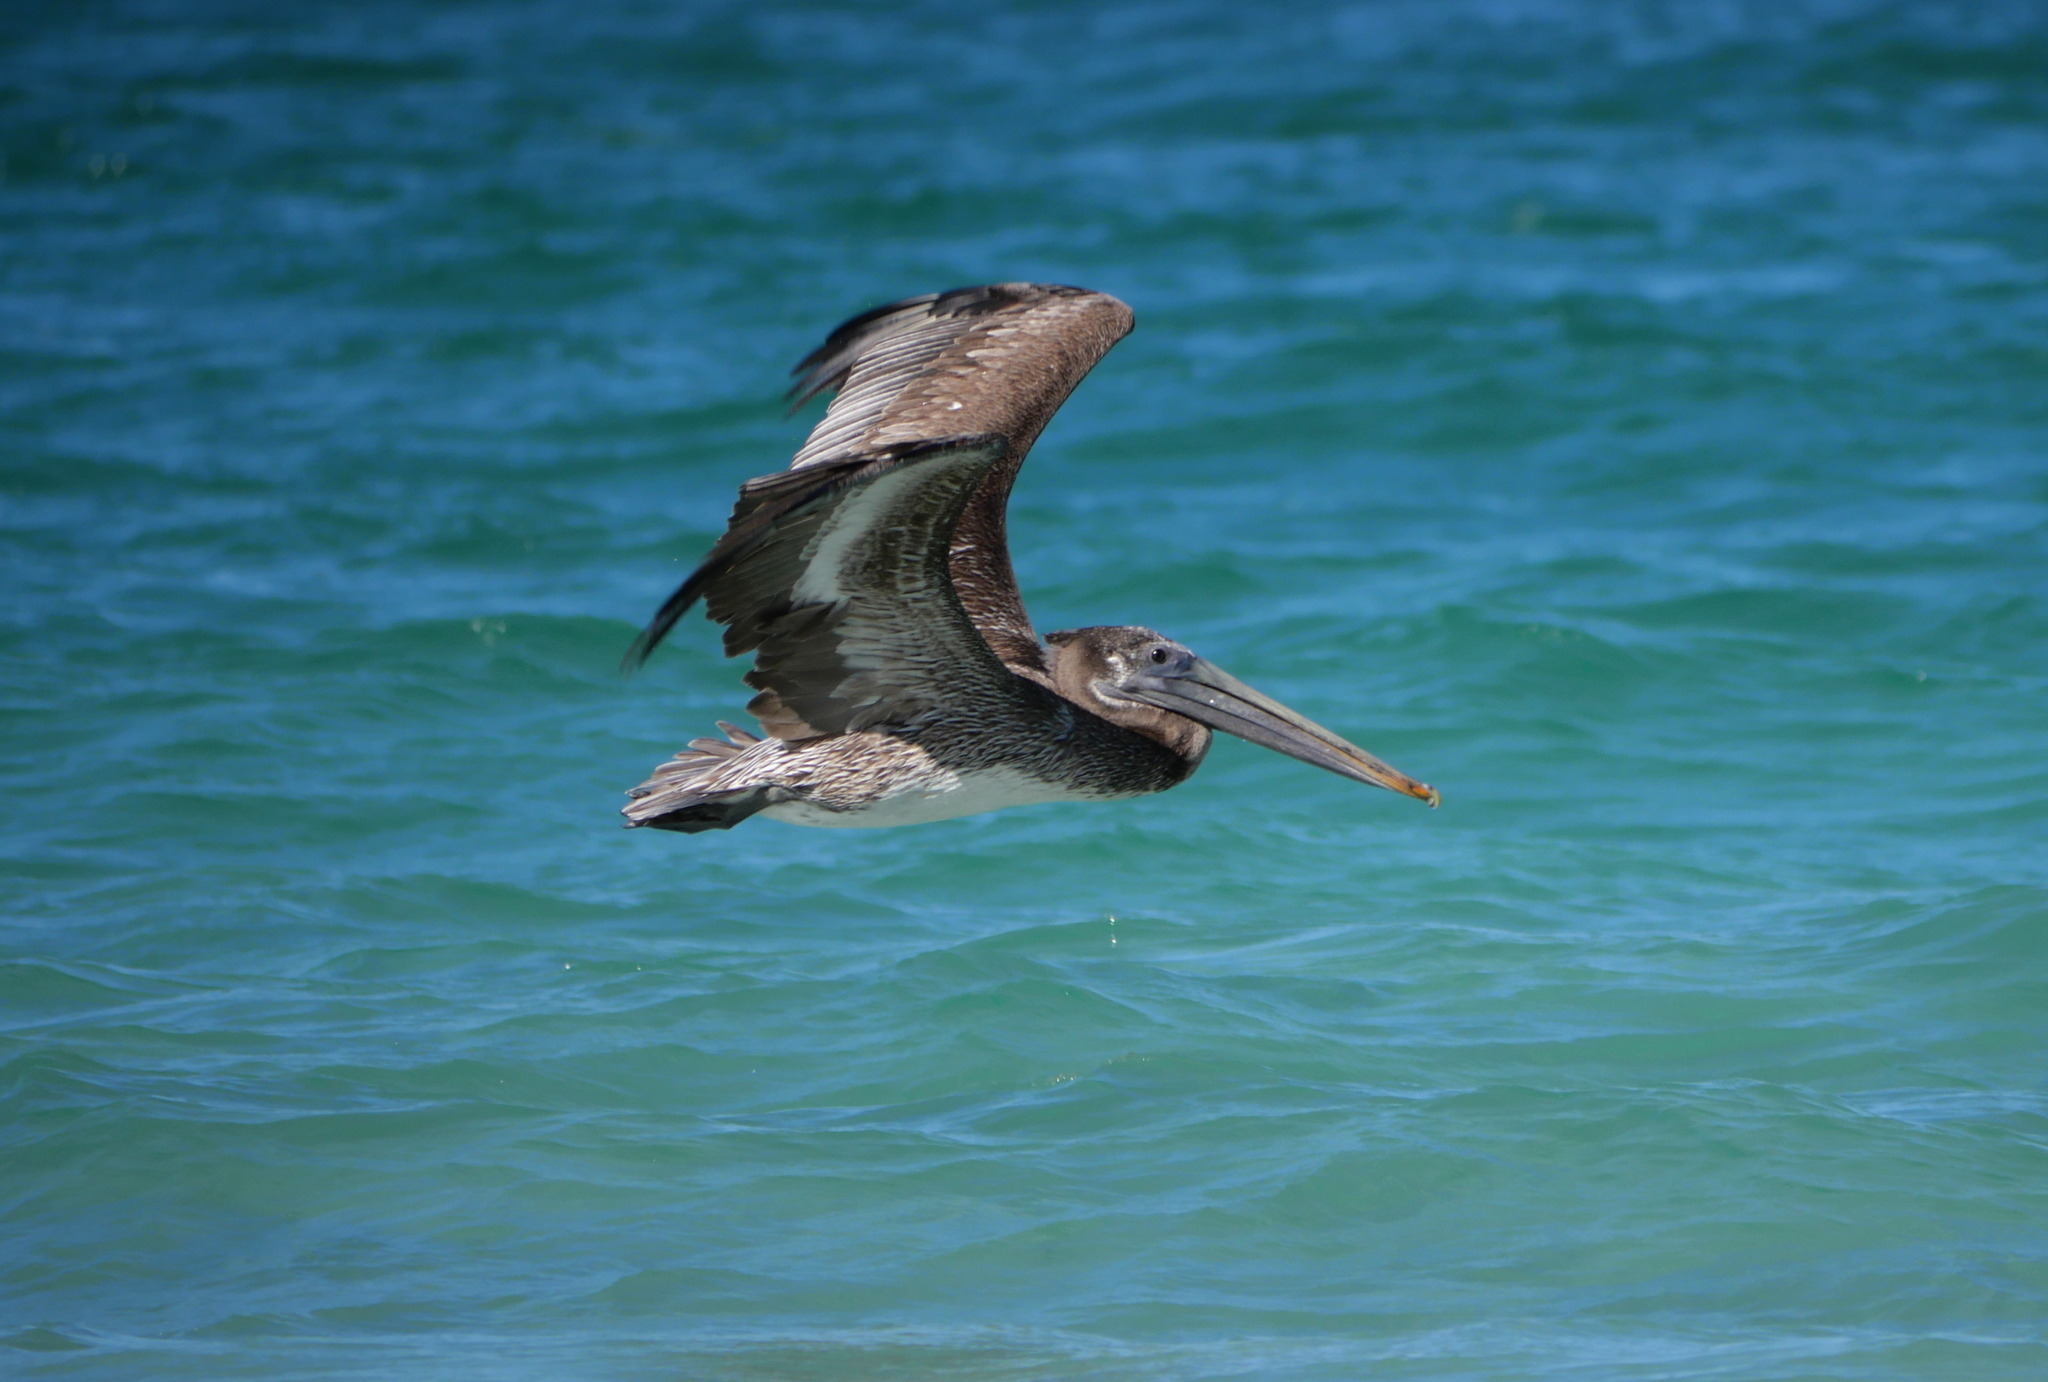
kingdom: Animalia
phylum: Chordata
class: Aves
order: Pelecaniformes
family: Pelecanidae
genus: Pelecanus
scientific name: Pelecanus occidentalis
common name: Brown pelican
